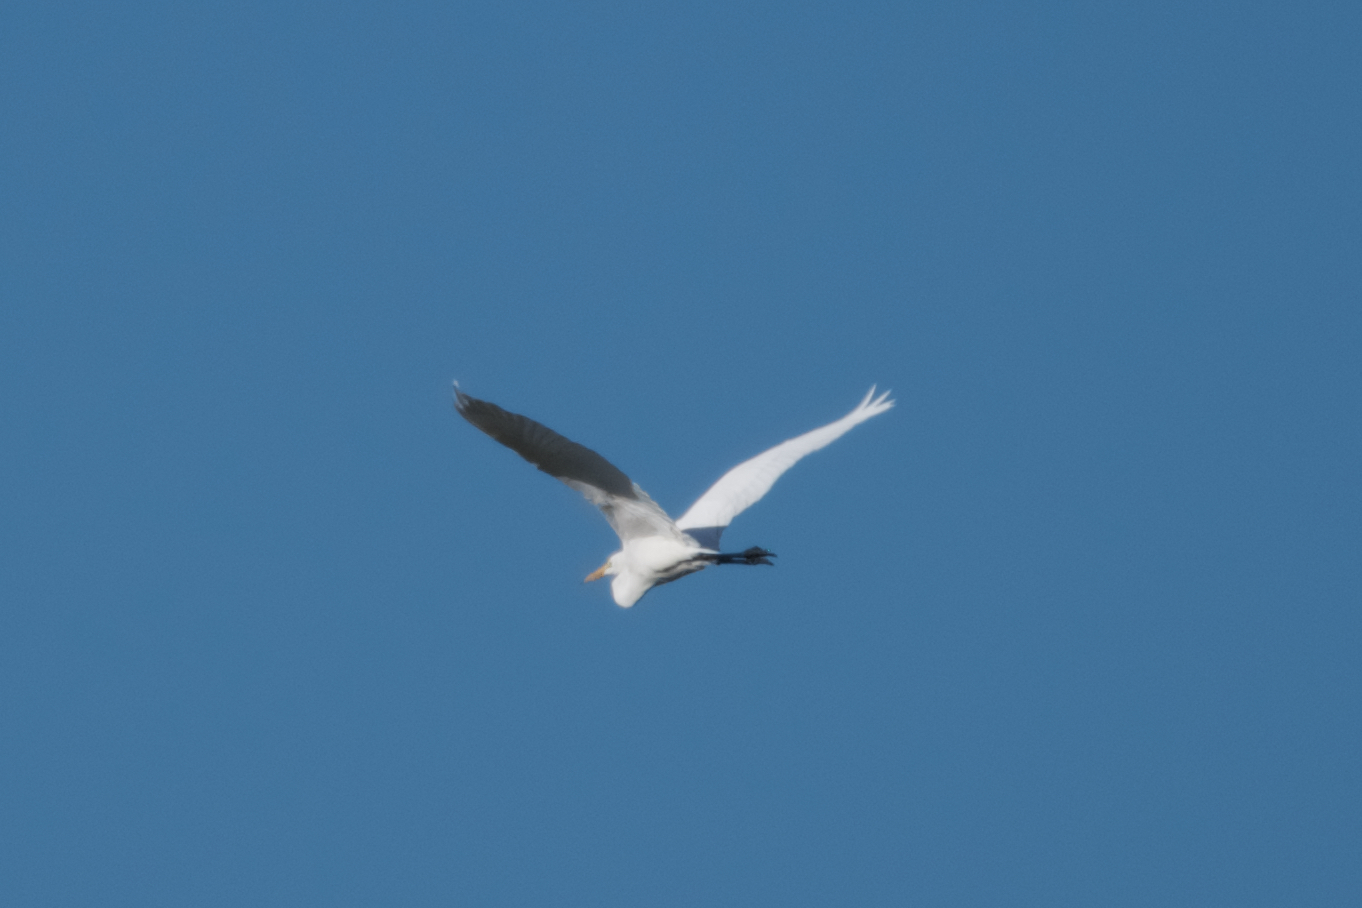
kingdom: Animalia
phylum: Chordata
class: Aves
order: Pelecaniformes
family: Ardeidae
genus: Ardea
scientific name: Ardea alba
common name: Great egret
